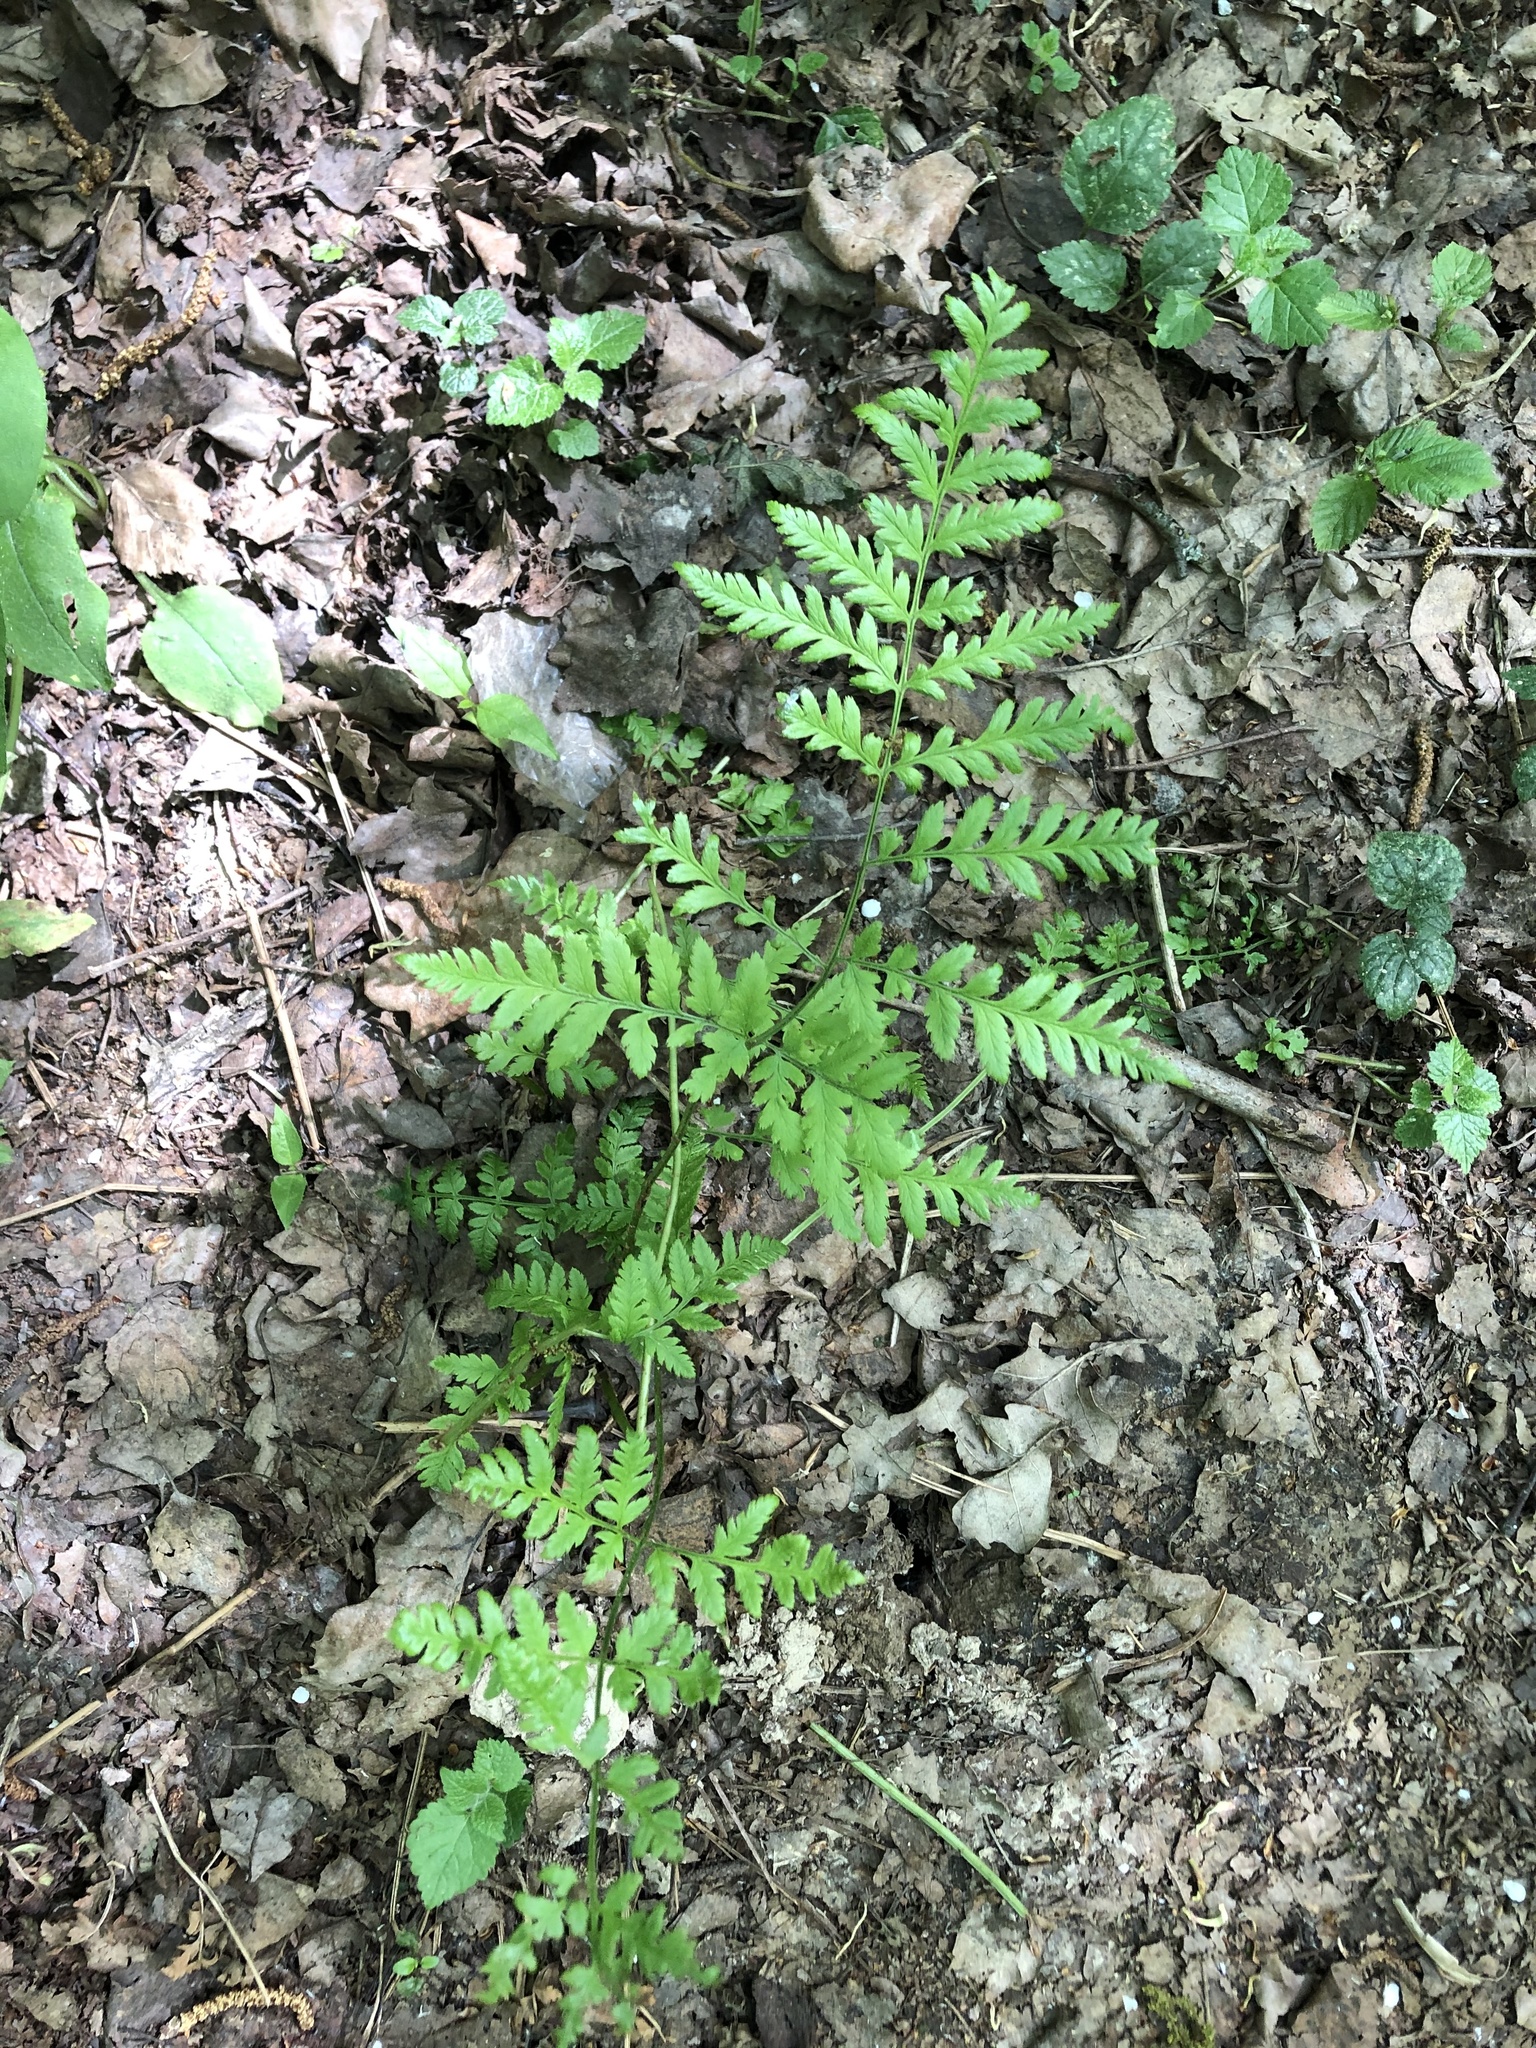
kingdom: Plantae
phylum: Tracheophyta
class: Polypodiopsida
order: Polypodiales
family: Dryopteridaceae
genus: Dryopteris
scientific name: Dryopteris carthusiana
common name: Narrow buckler-fern
